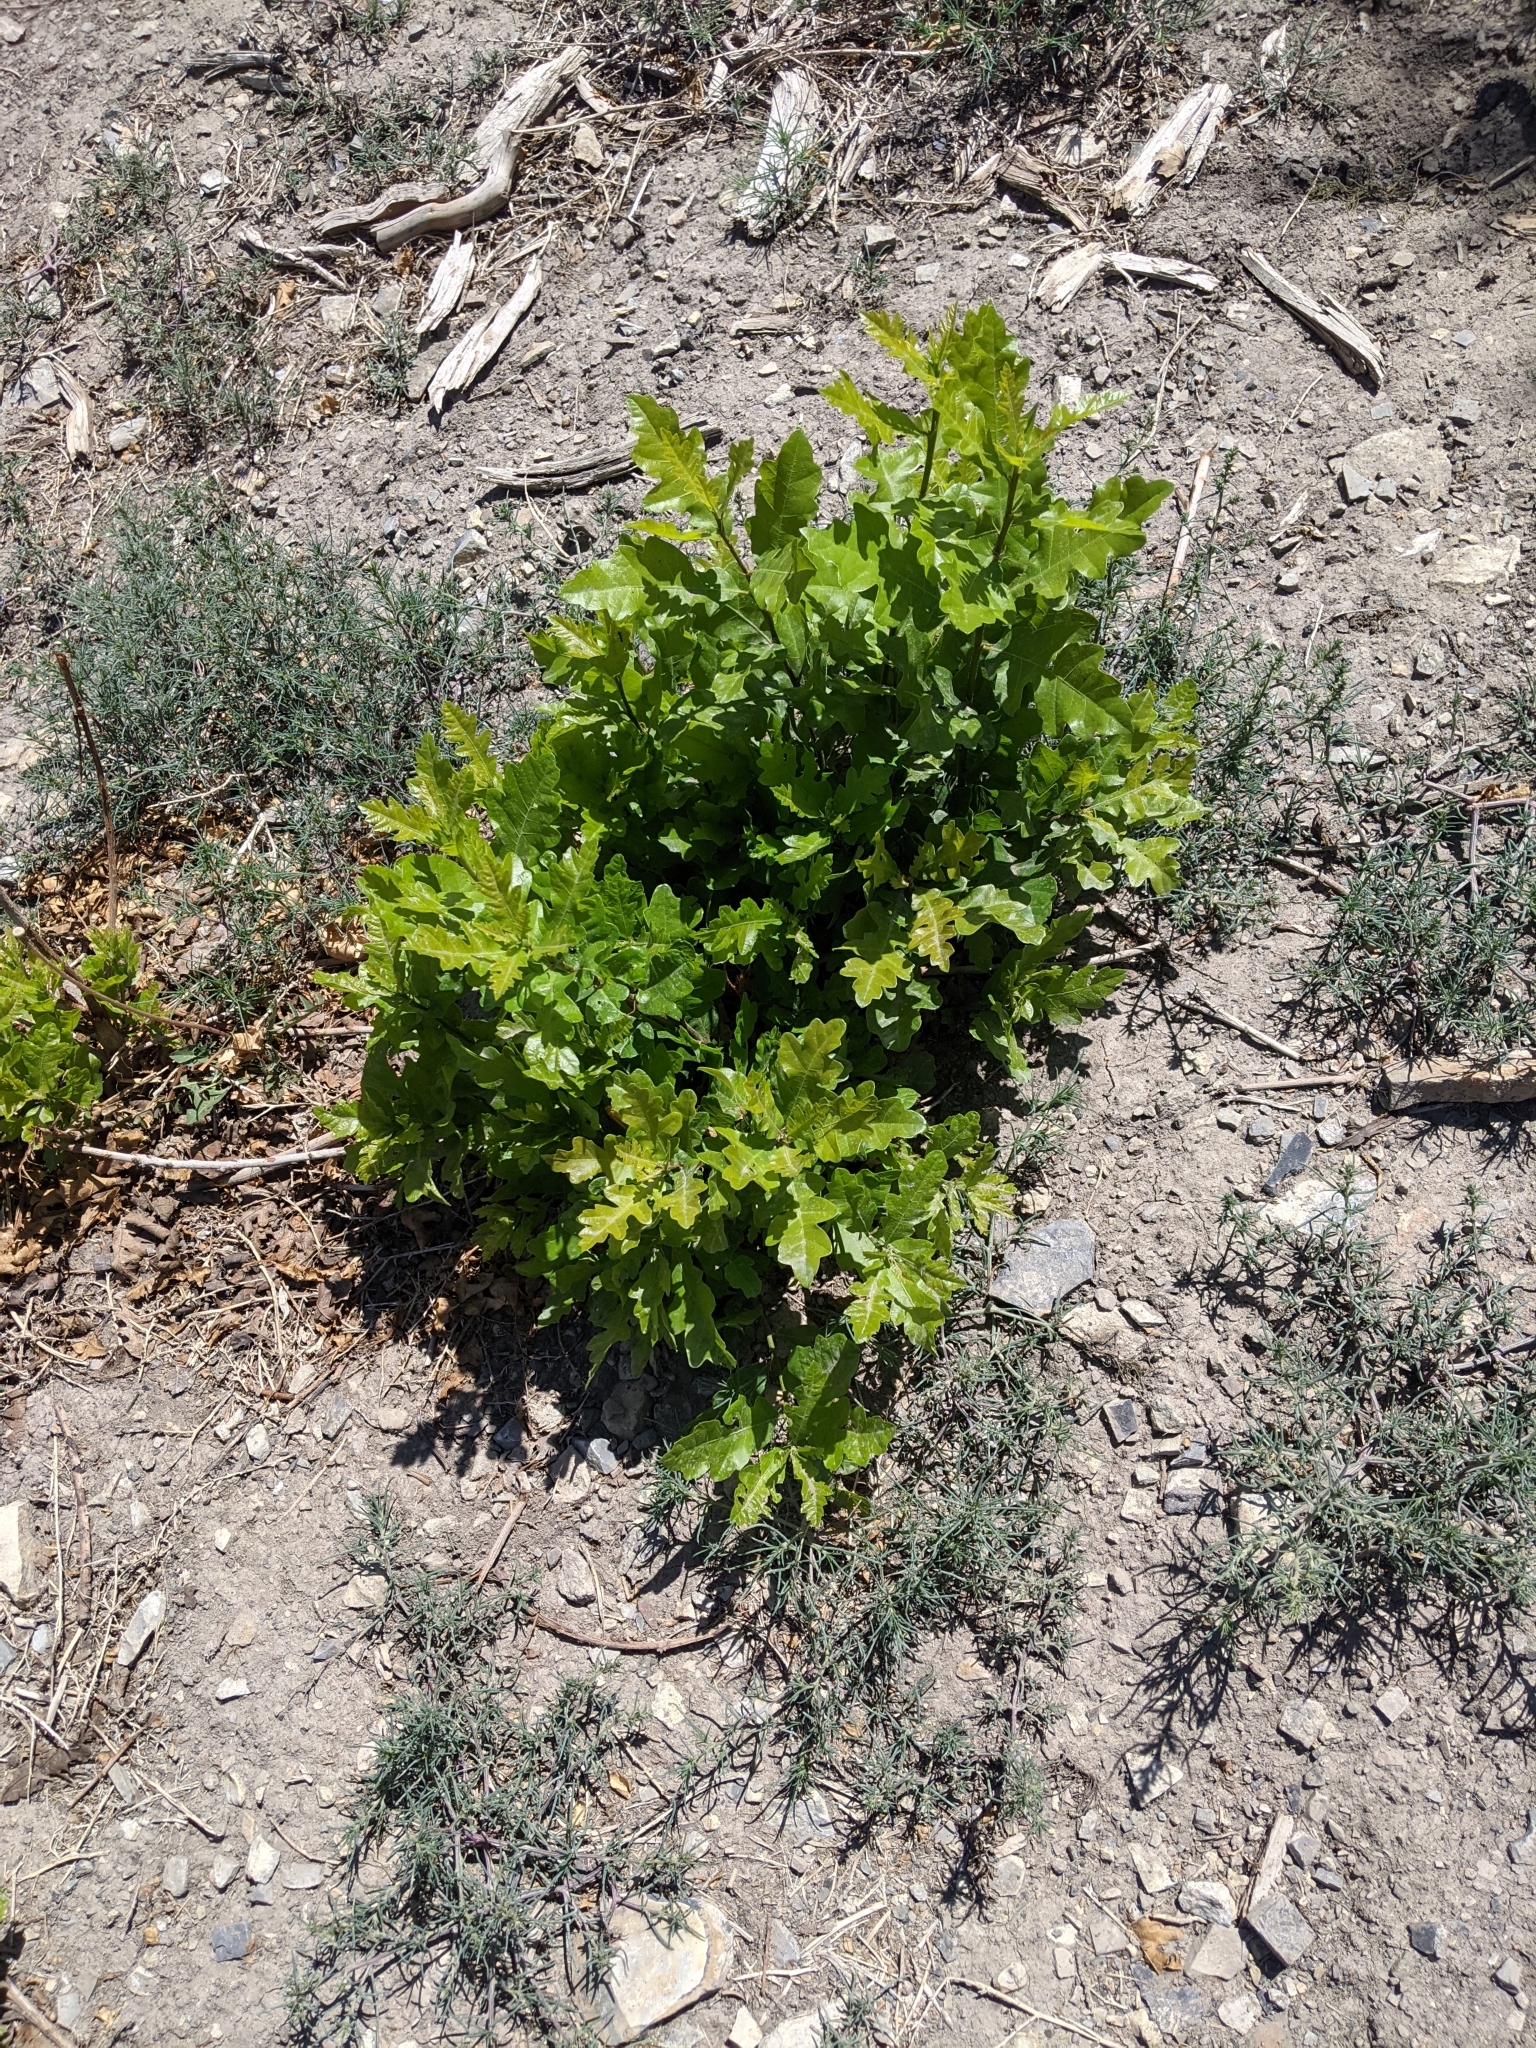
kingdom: Plantae
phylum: Tracheophyta
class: Magnoliopsida
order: Fagales
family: Fagaceae
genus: Quercus
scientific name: Quercus gambelii
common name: Gambel oak
